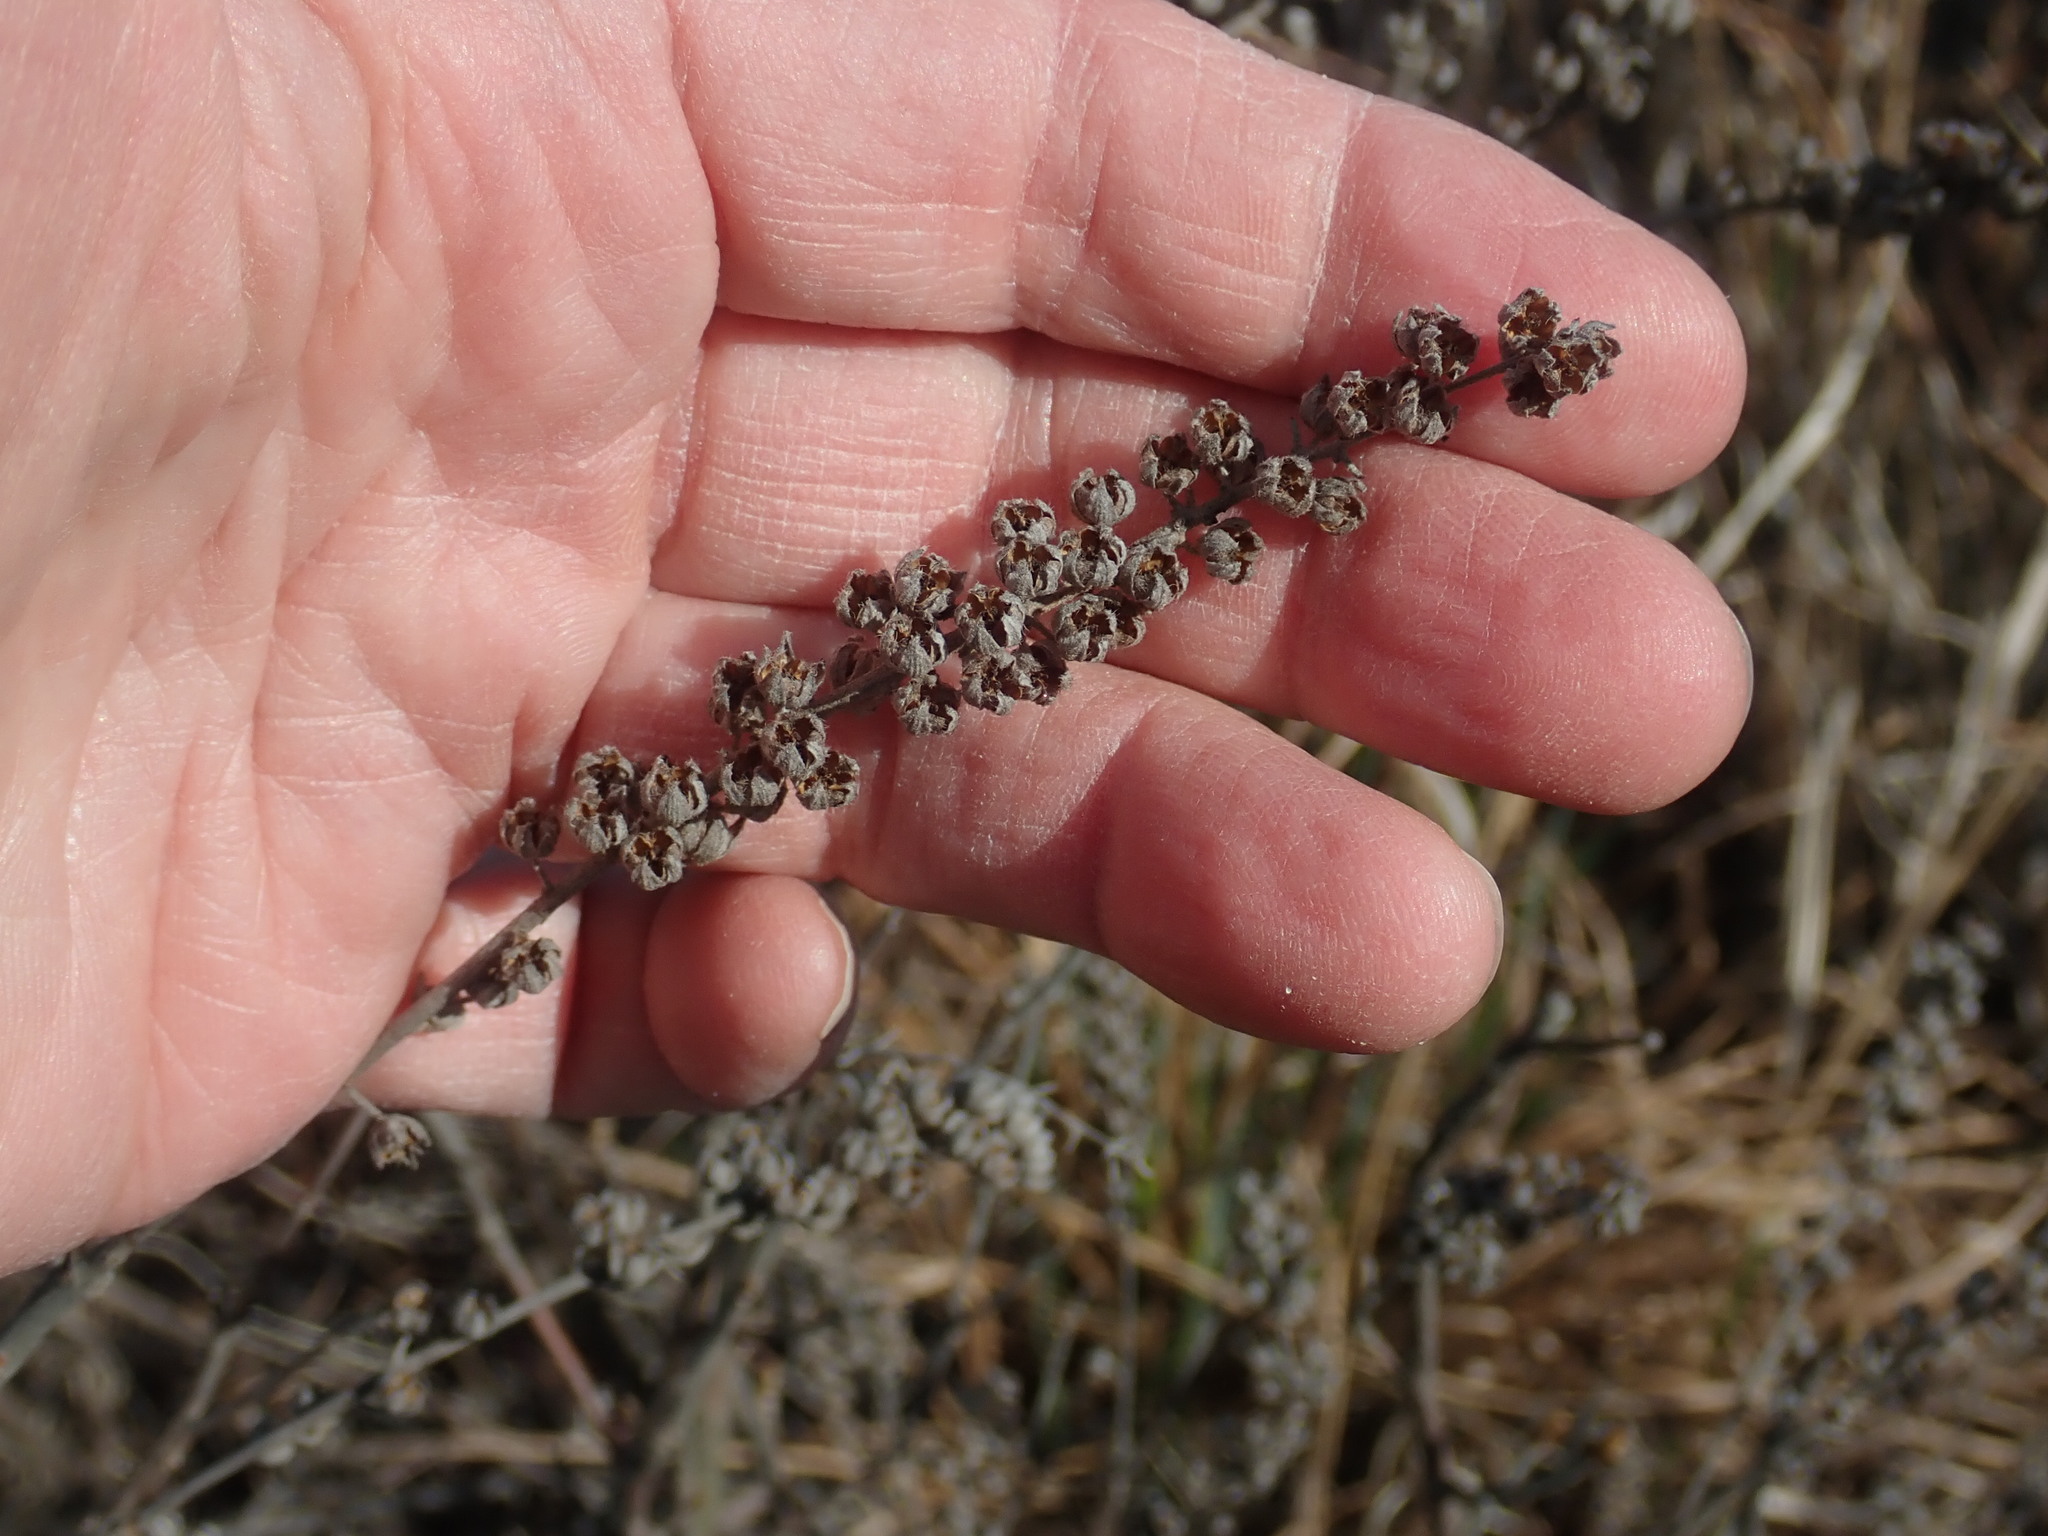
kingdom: Plantae
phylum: Tracheophyta
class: Magnoliopsida
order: Ericales
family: Clethraceae
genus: Clethra
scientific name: Clethra alnifolia
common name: Sweet pepperbush
